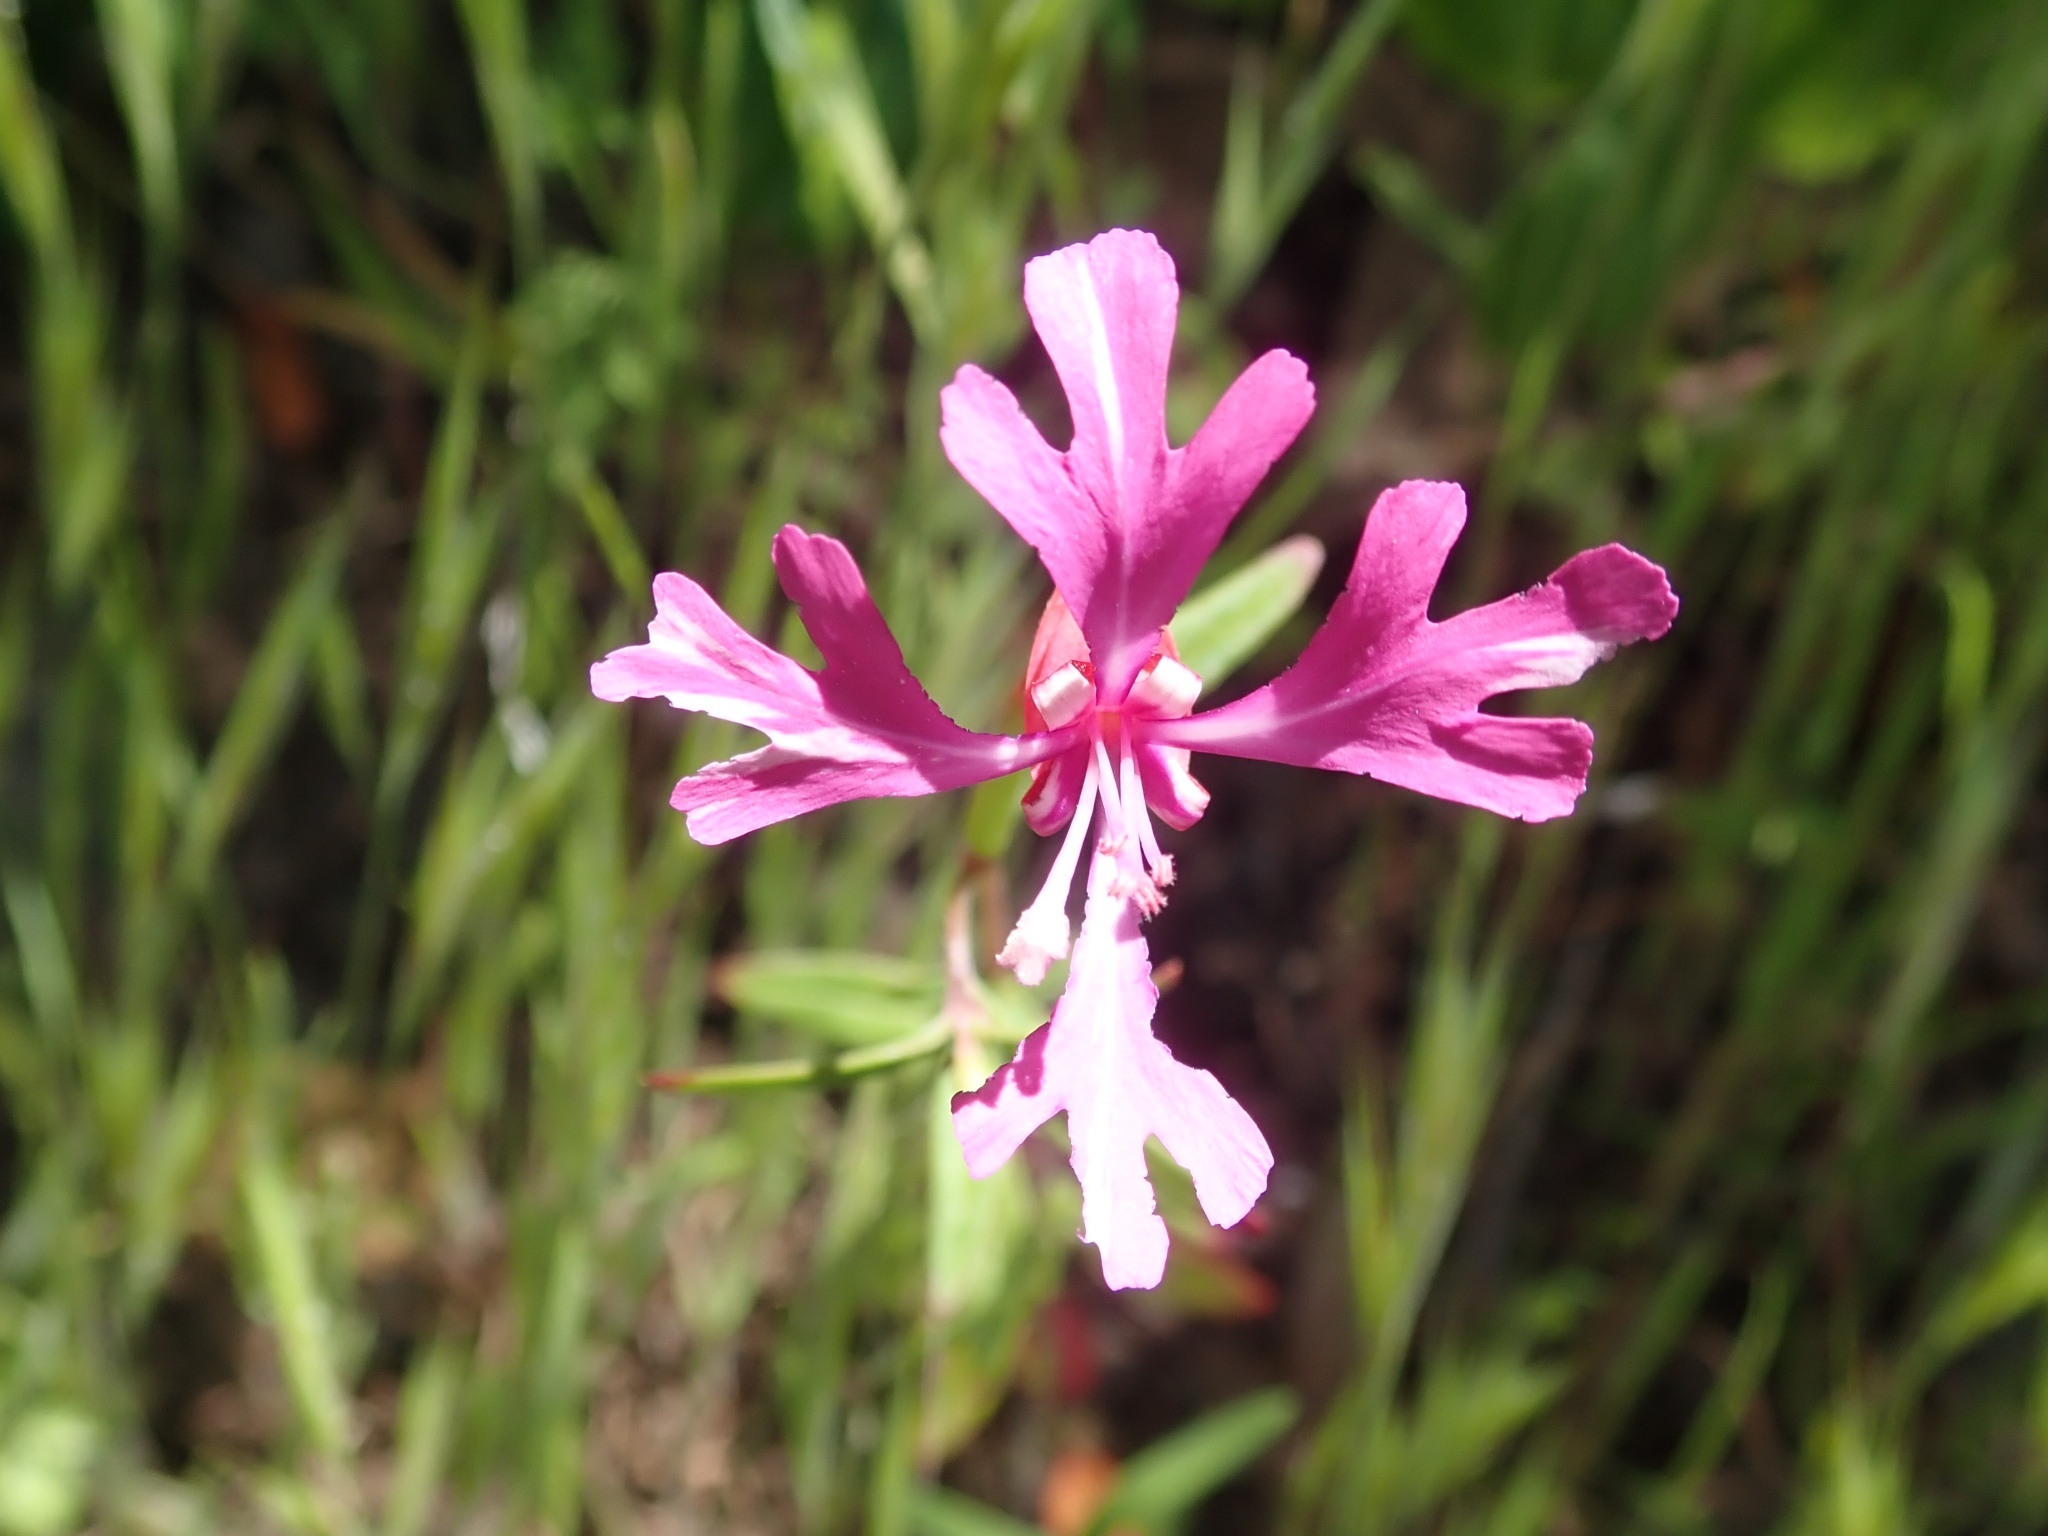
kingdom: Plantae
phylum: Tracheophyta
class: Magnoliopsida
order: Myrtales
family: Onagraceae
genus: Clarkia
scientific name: Clarkia concinna
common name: Red-ribbons
